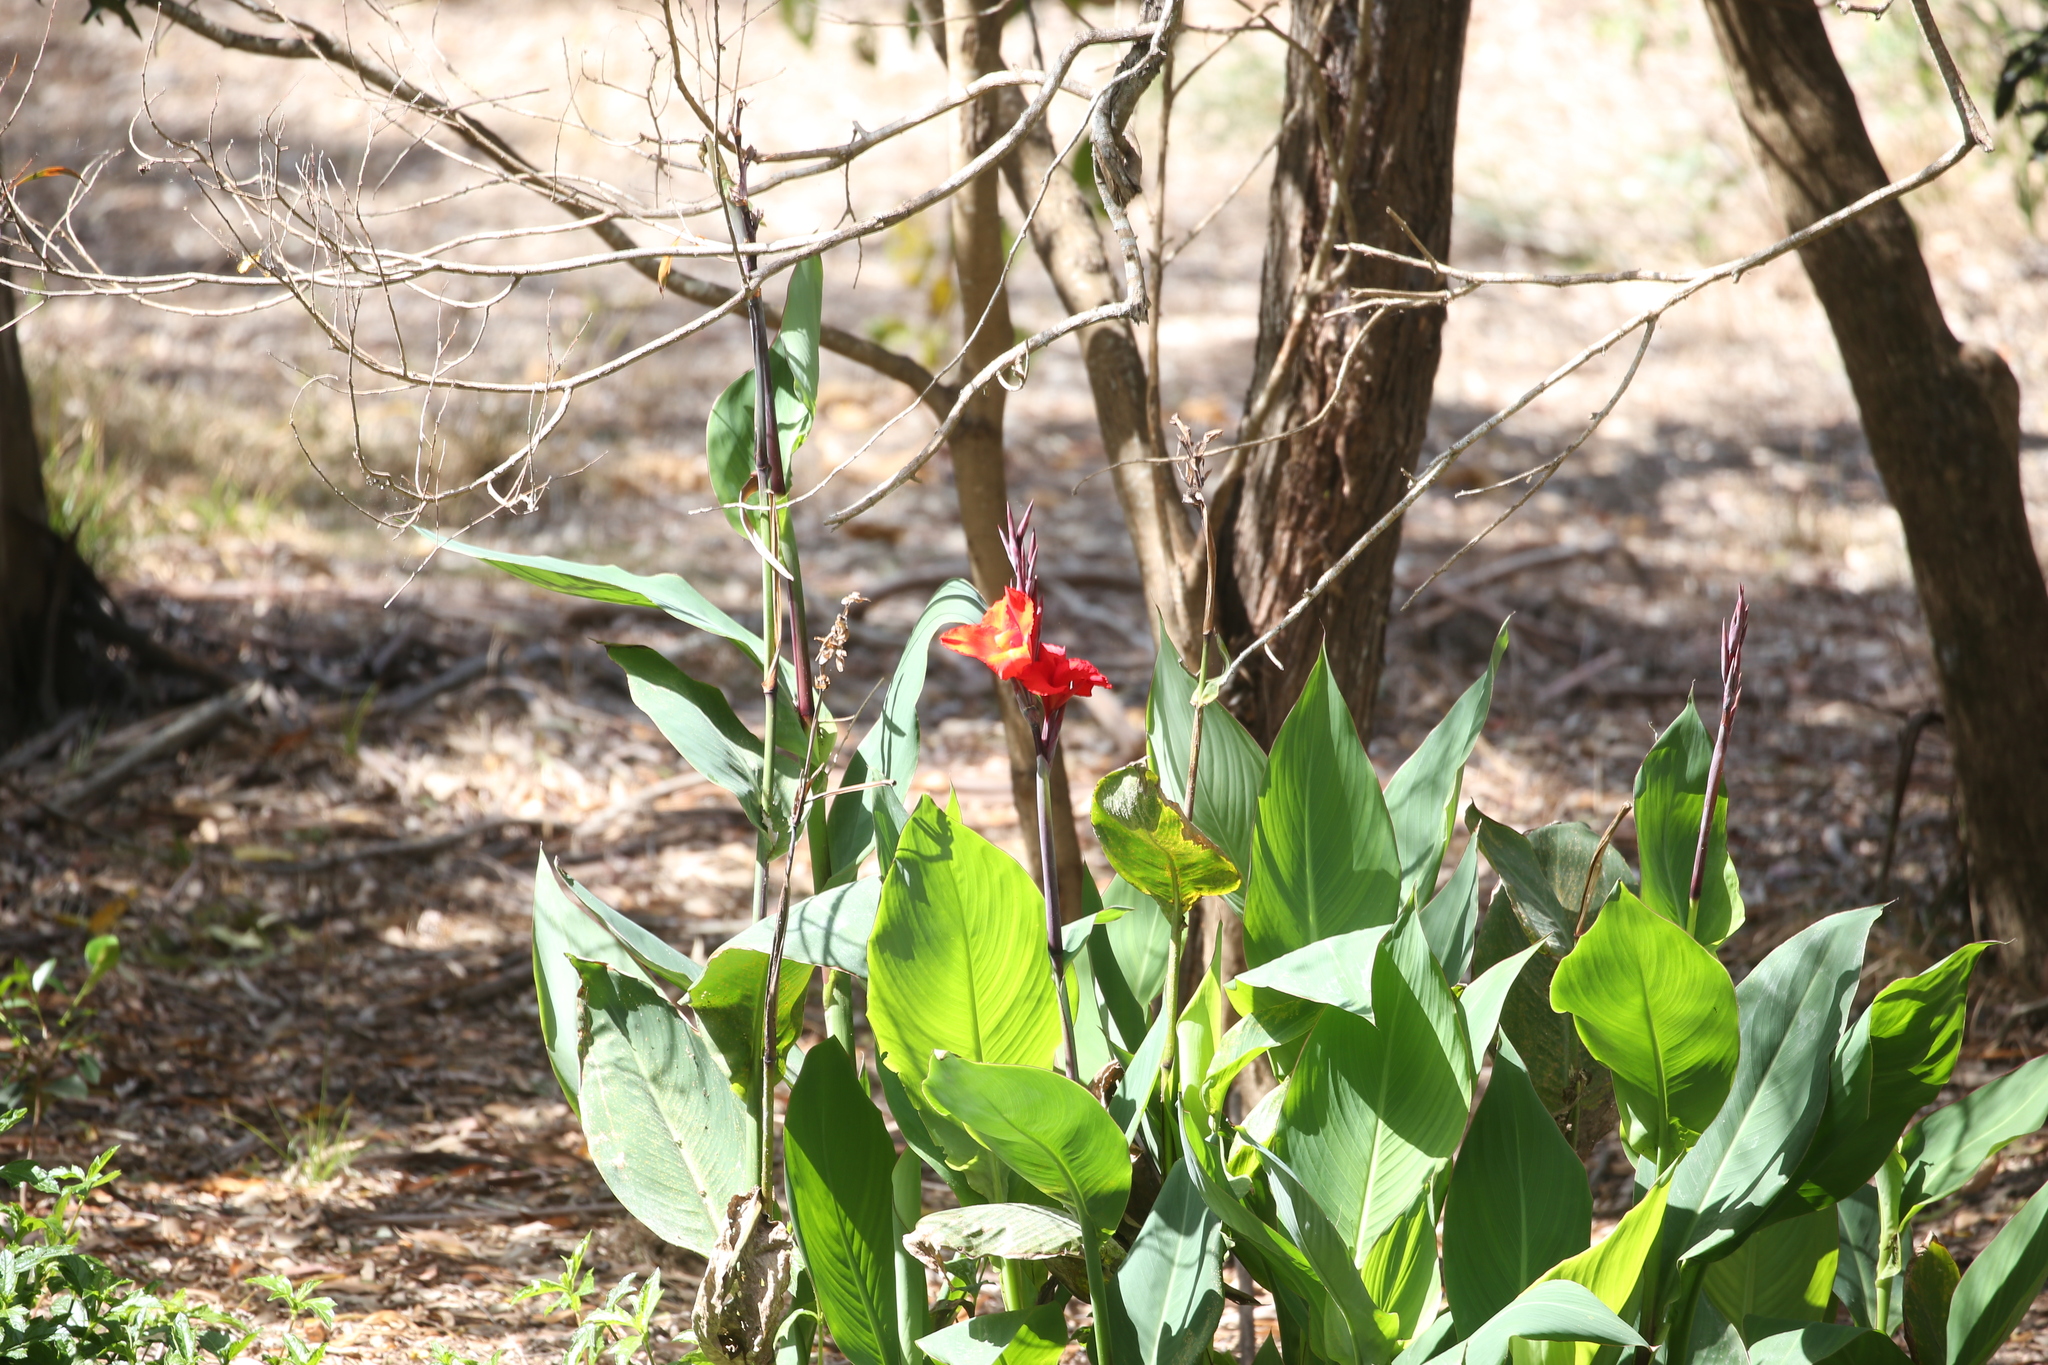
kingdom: Plantae
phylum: Tracheophyta
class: Liliopsida
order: Zingiberales
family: Cannaceae
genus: Canna
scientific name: Canna hybrida
